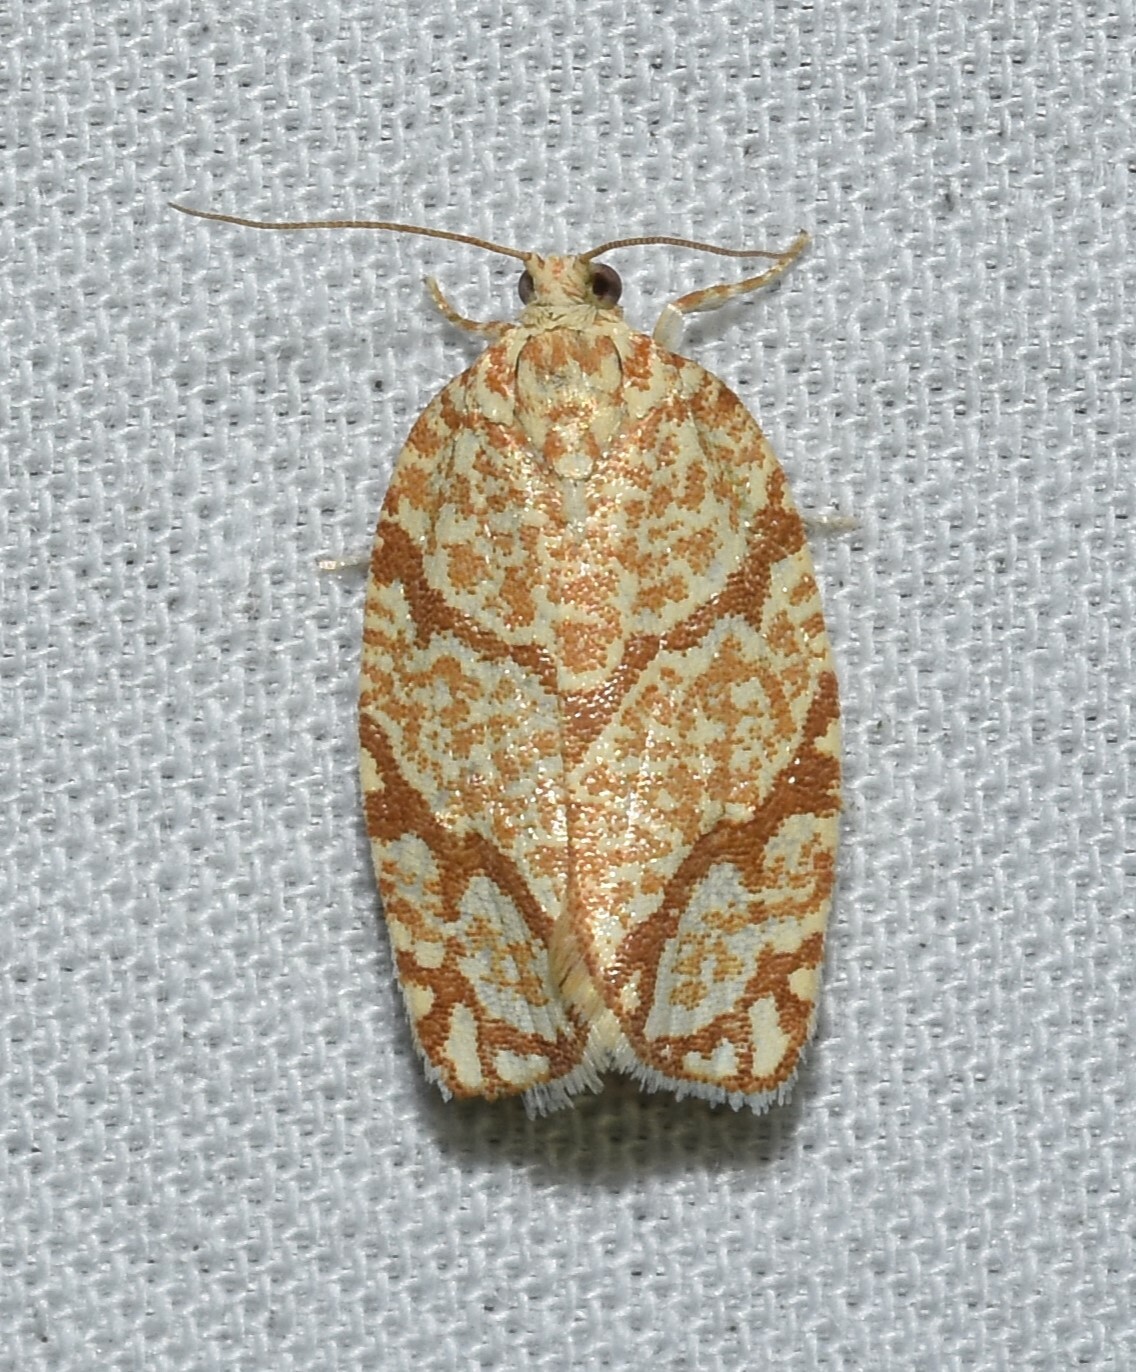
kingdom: Animalia
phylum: Arthropoda
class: Insecta
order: Lepidoptera
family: Tortricidae
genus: Argyrotaenia
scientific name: Argyrotaenia quercifoliana
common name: Yellow-winged oak leafroller moth
